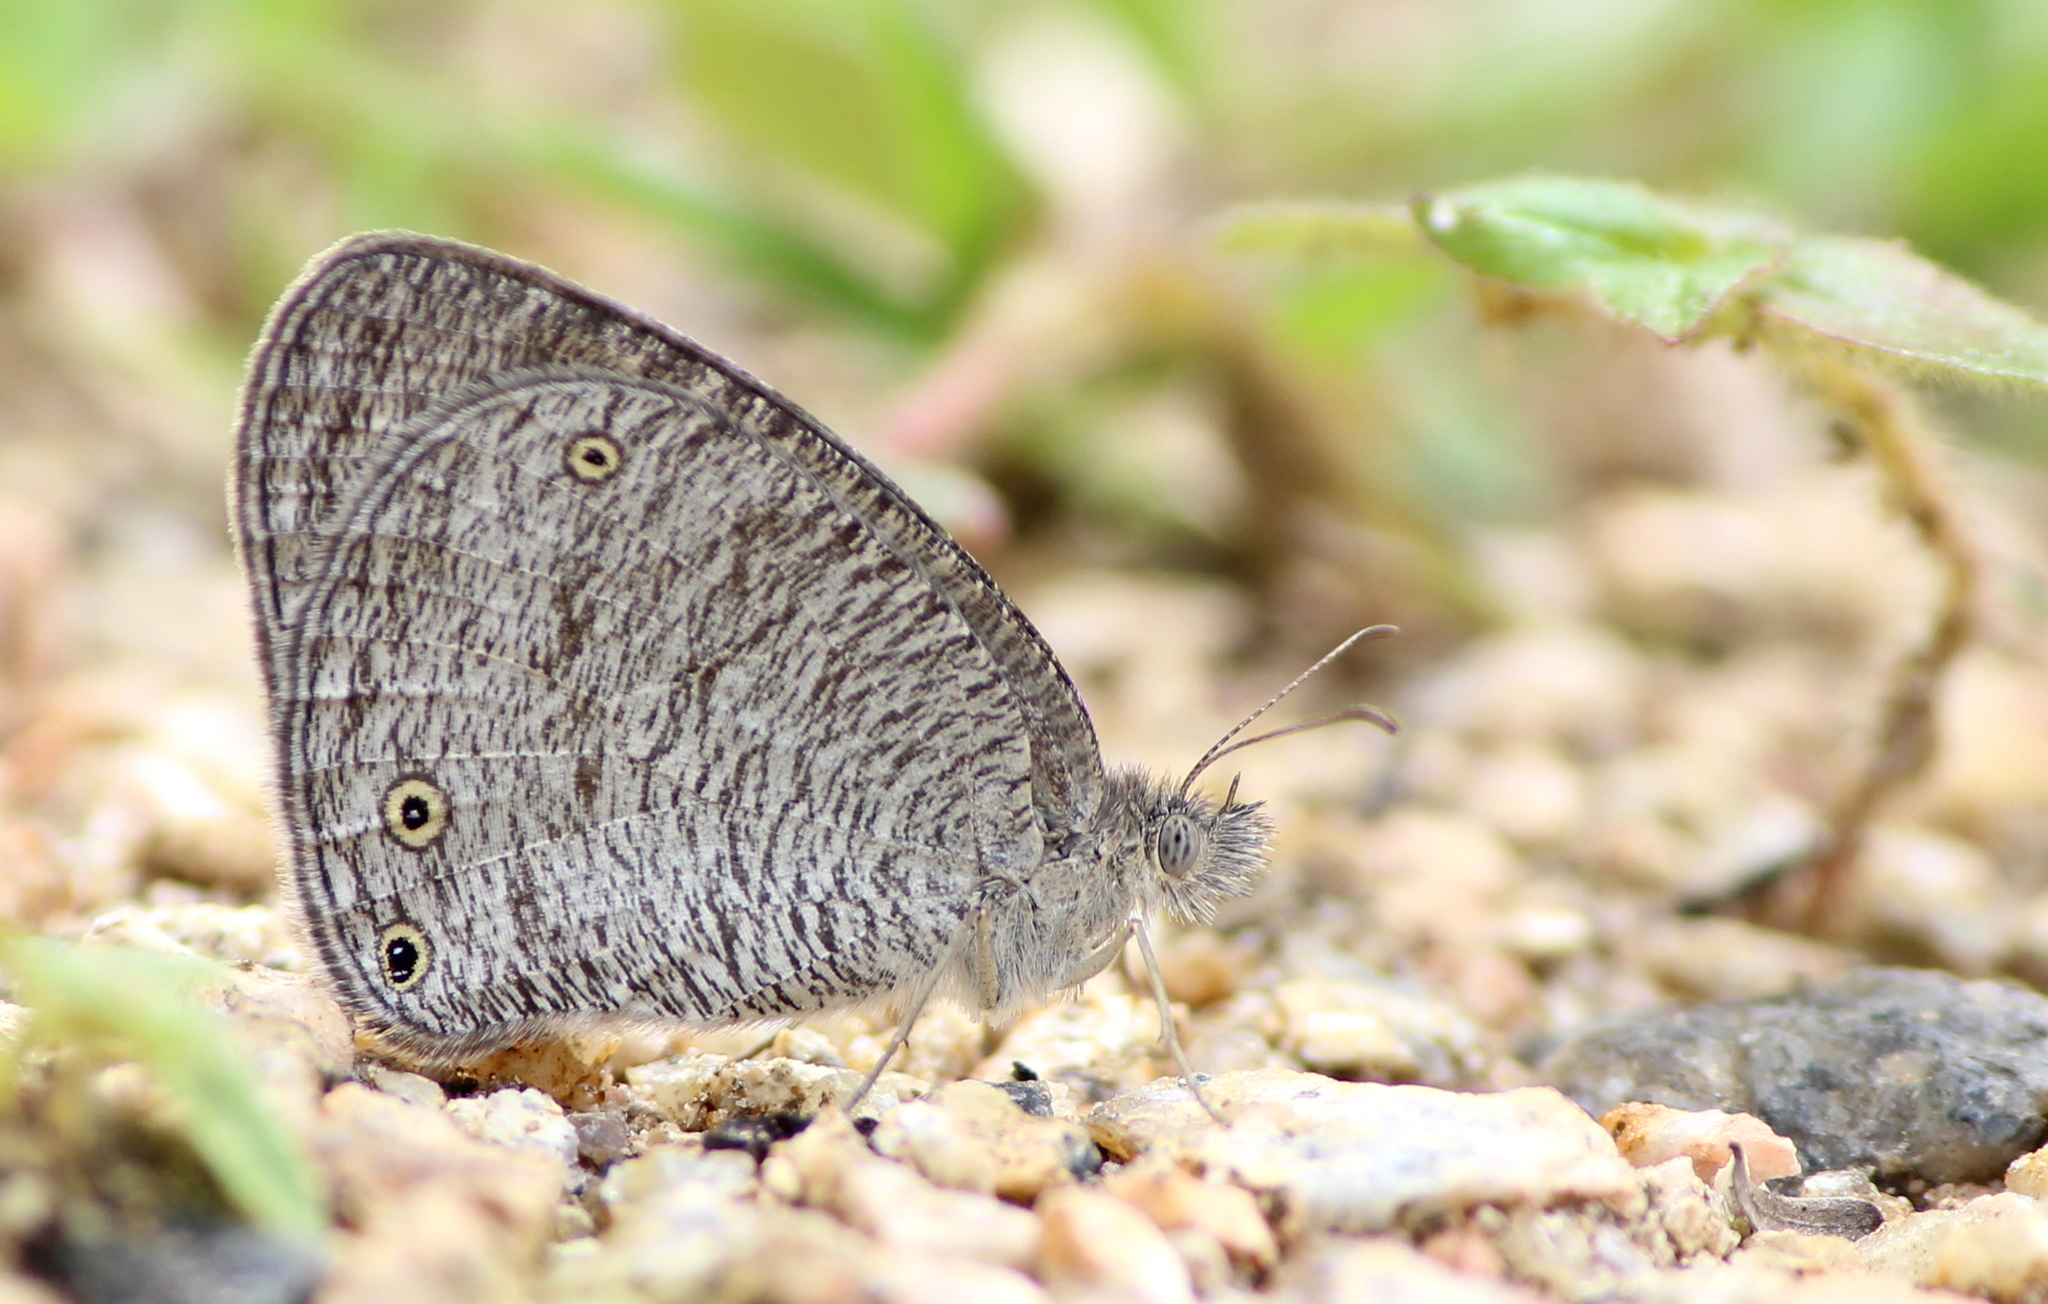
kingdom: Animalia
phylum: Arthropoda
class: Insecta
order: Lepidoptera
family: Nymphalidae
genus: Ypthima
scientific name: Ypthima asterope
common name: African ringlet
